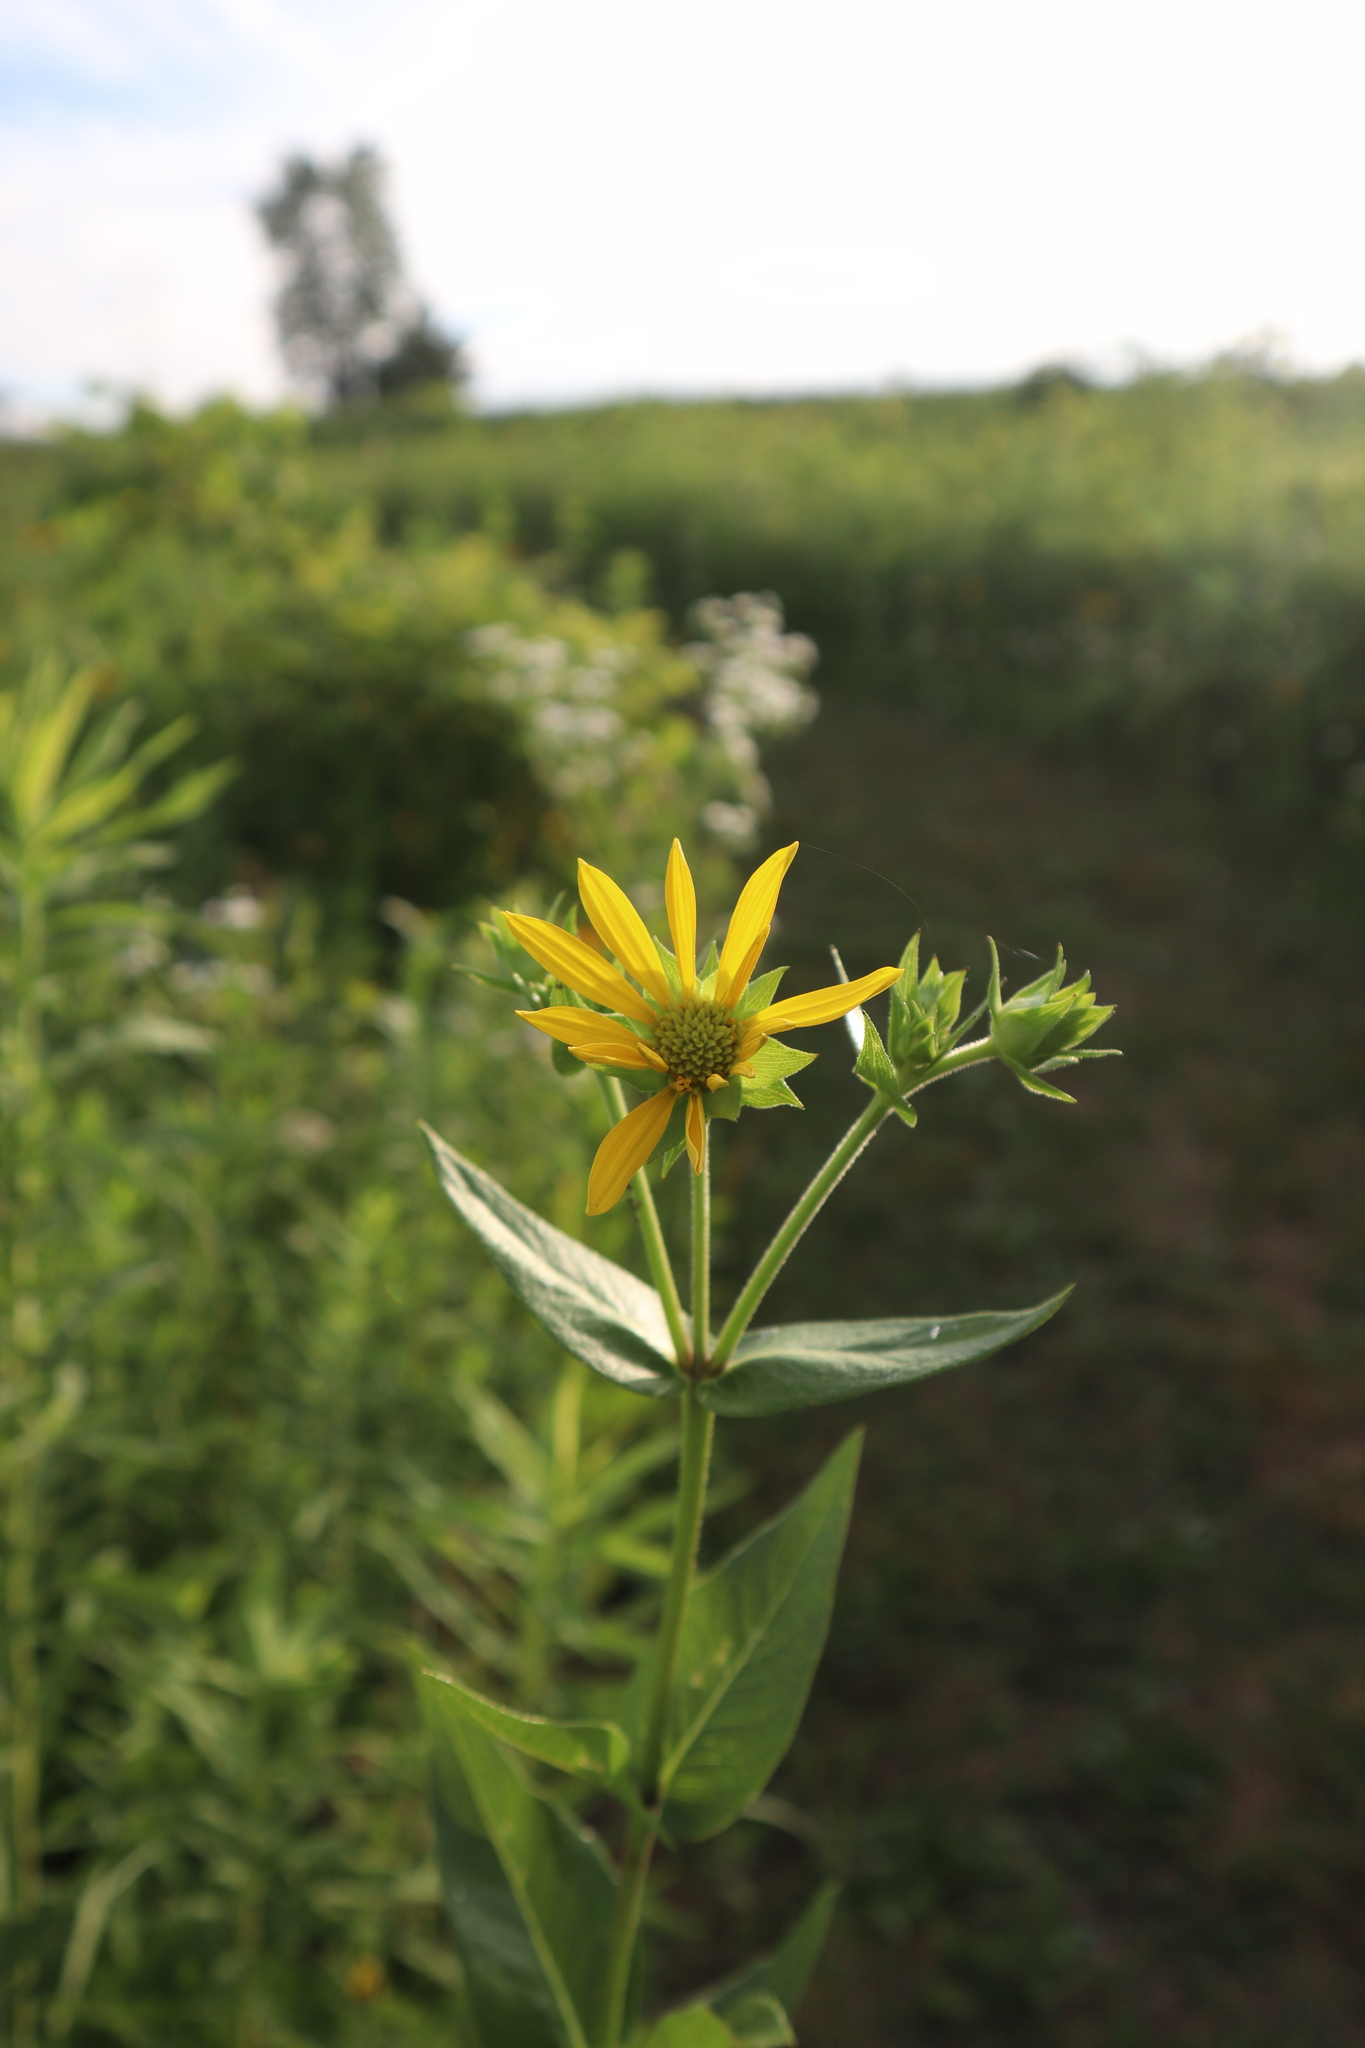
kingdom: Plantae
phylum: Tracheophyta
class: Magnoliopsida
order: Asterales
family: Asteraceae
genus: Silphium
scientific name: Silphium integrifolium
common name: Whole-leaf rosinweed
